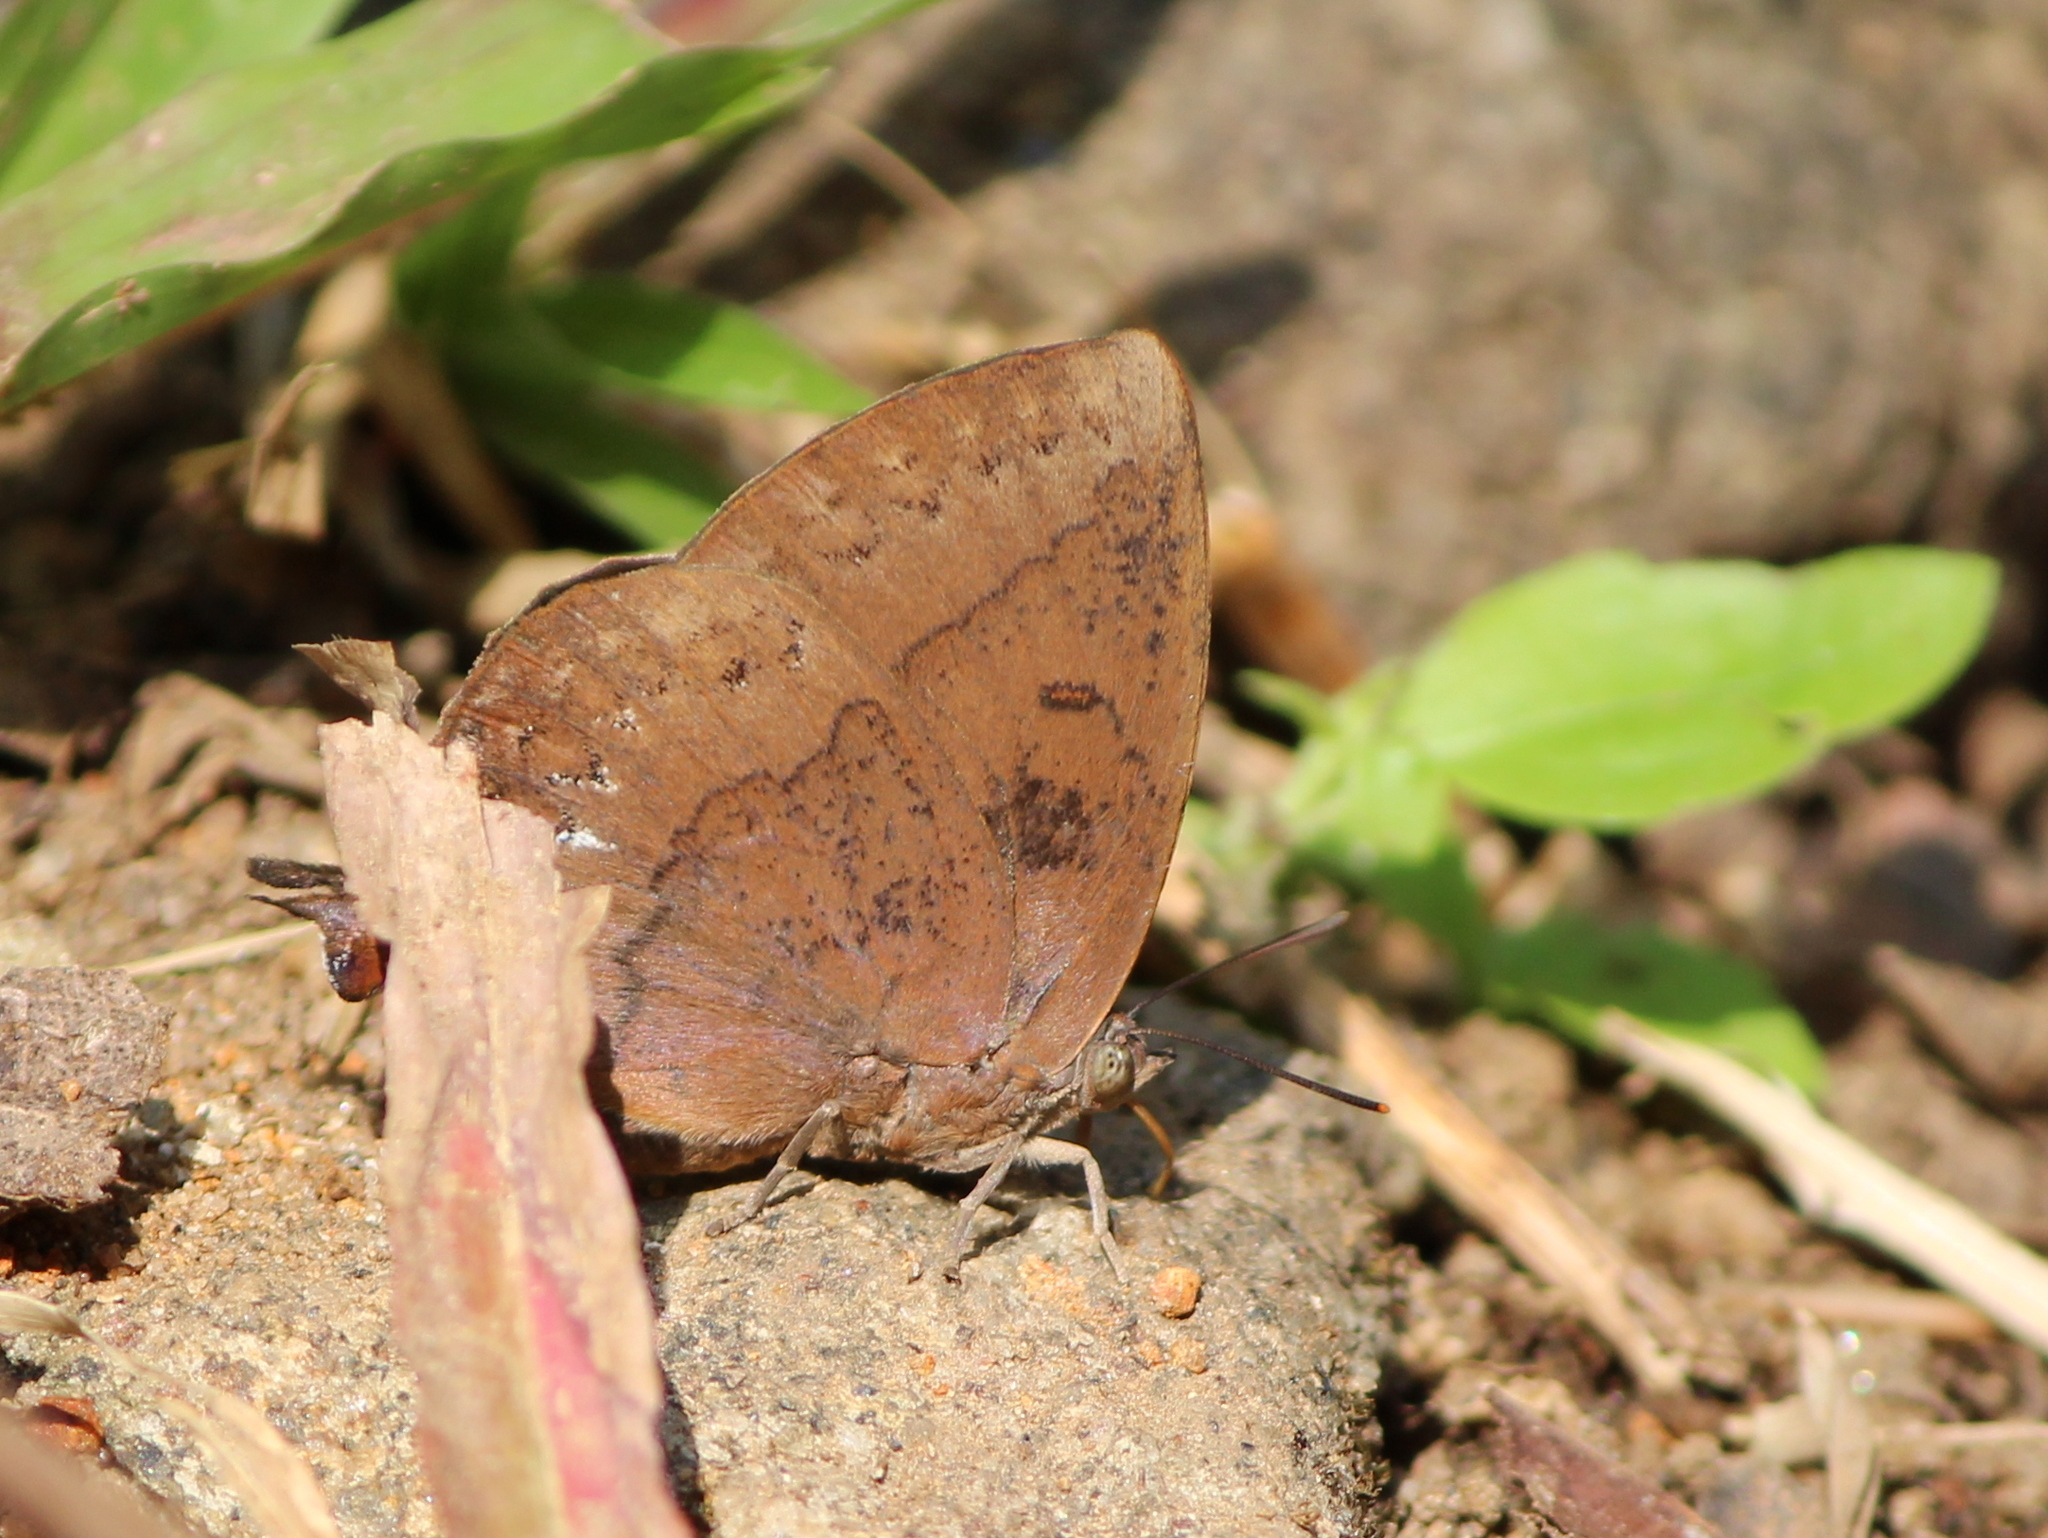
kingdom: Animalia
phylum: Arthropoda
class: Insecta
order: Lepidoptera
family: Lycaenidae
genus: Amblypodia
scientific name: Amblypodia anita
